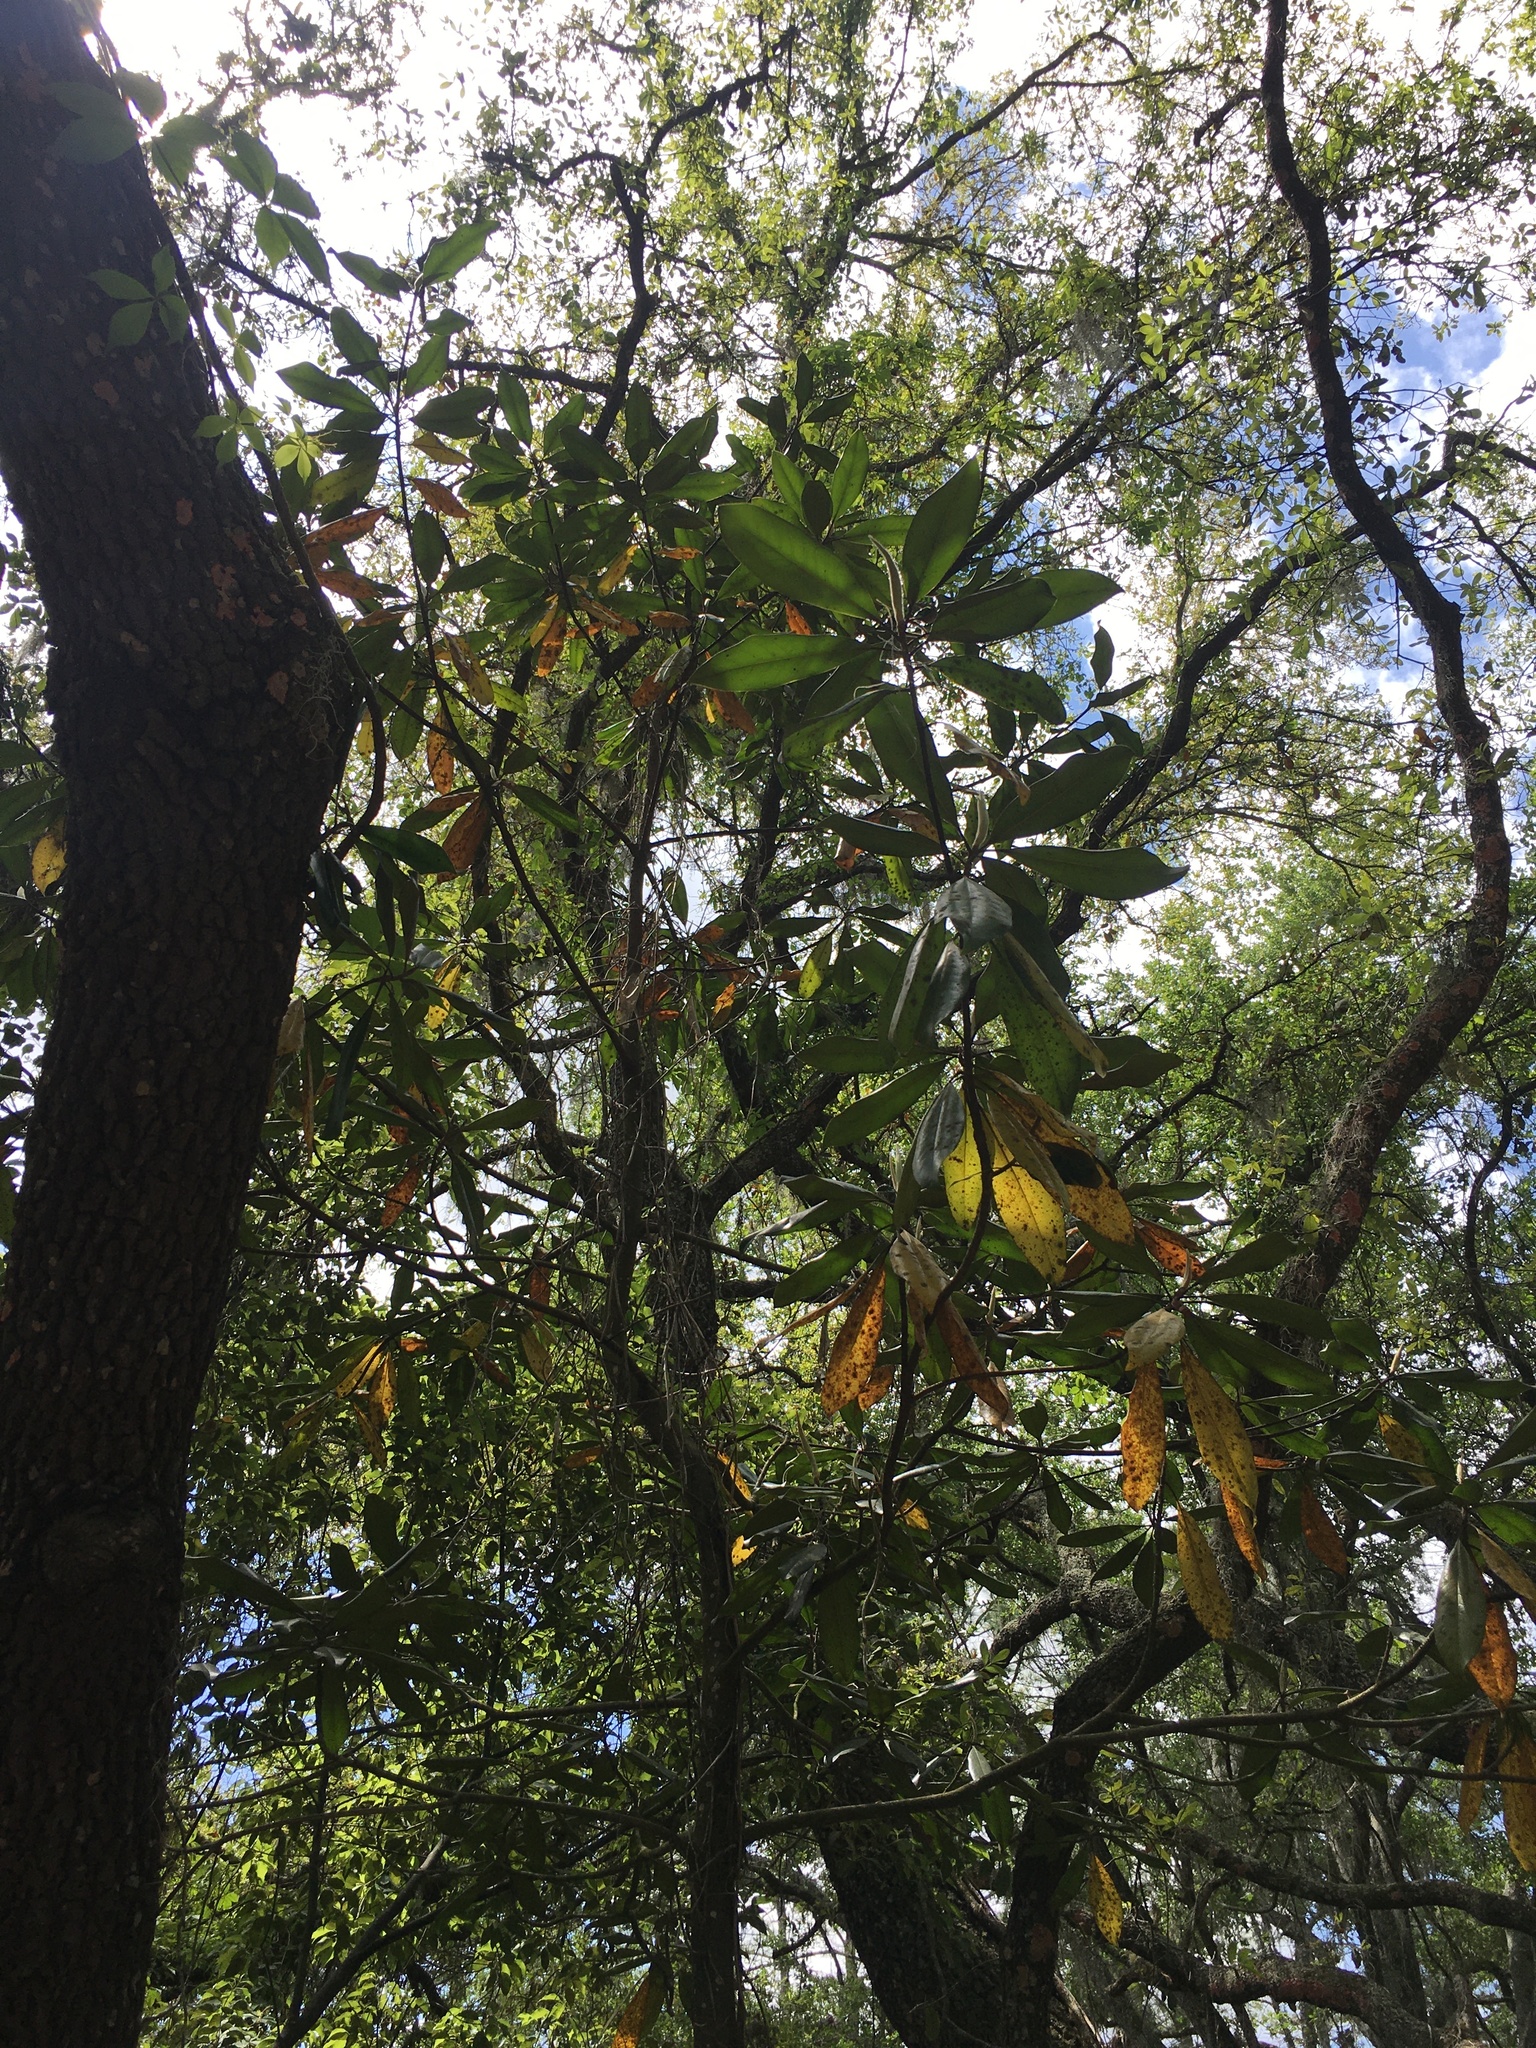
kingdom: Plantae
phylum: Tracheophyta
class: Magnoliopsida
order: Magnoliales
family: Magnoliaceae
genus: Magnolia
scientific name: Magnolia grandiflora
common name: Southern magnolia
